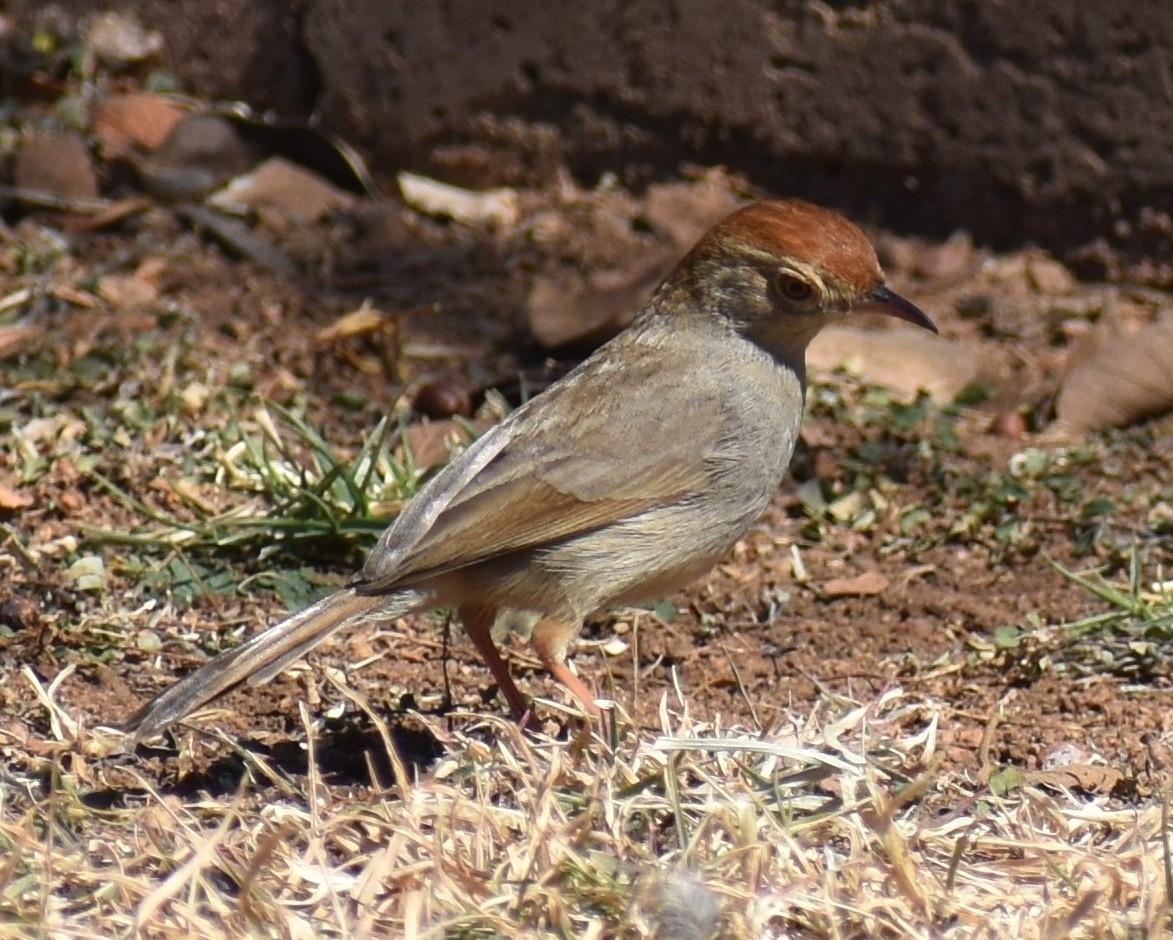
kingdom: Animalia
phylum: Chordata
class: Aves
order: Passeriformes
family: Cisticolidae
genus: Cisticola
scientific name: Cisticola fulvicapilla
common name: Neddicky
